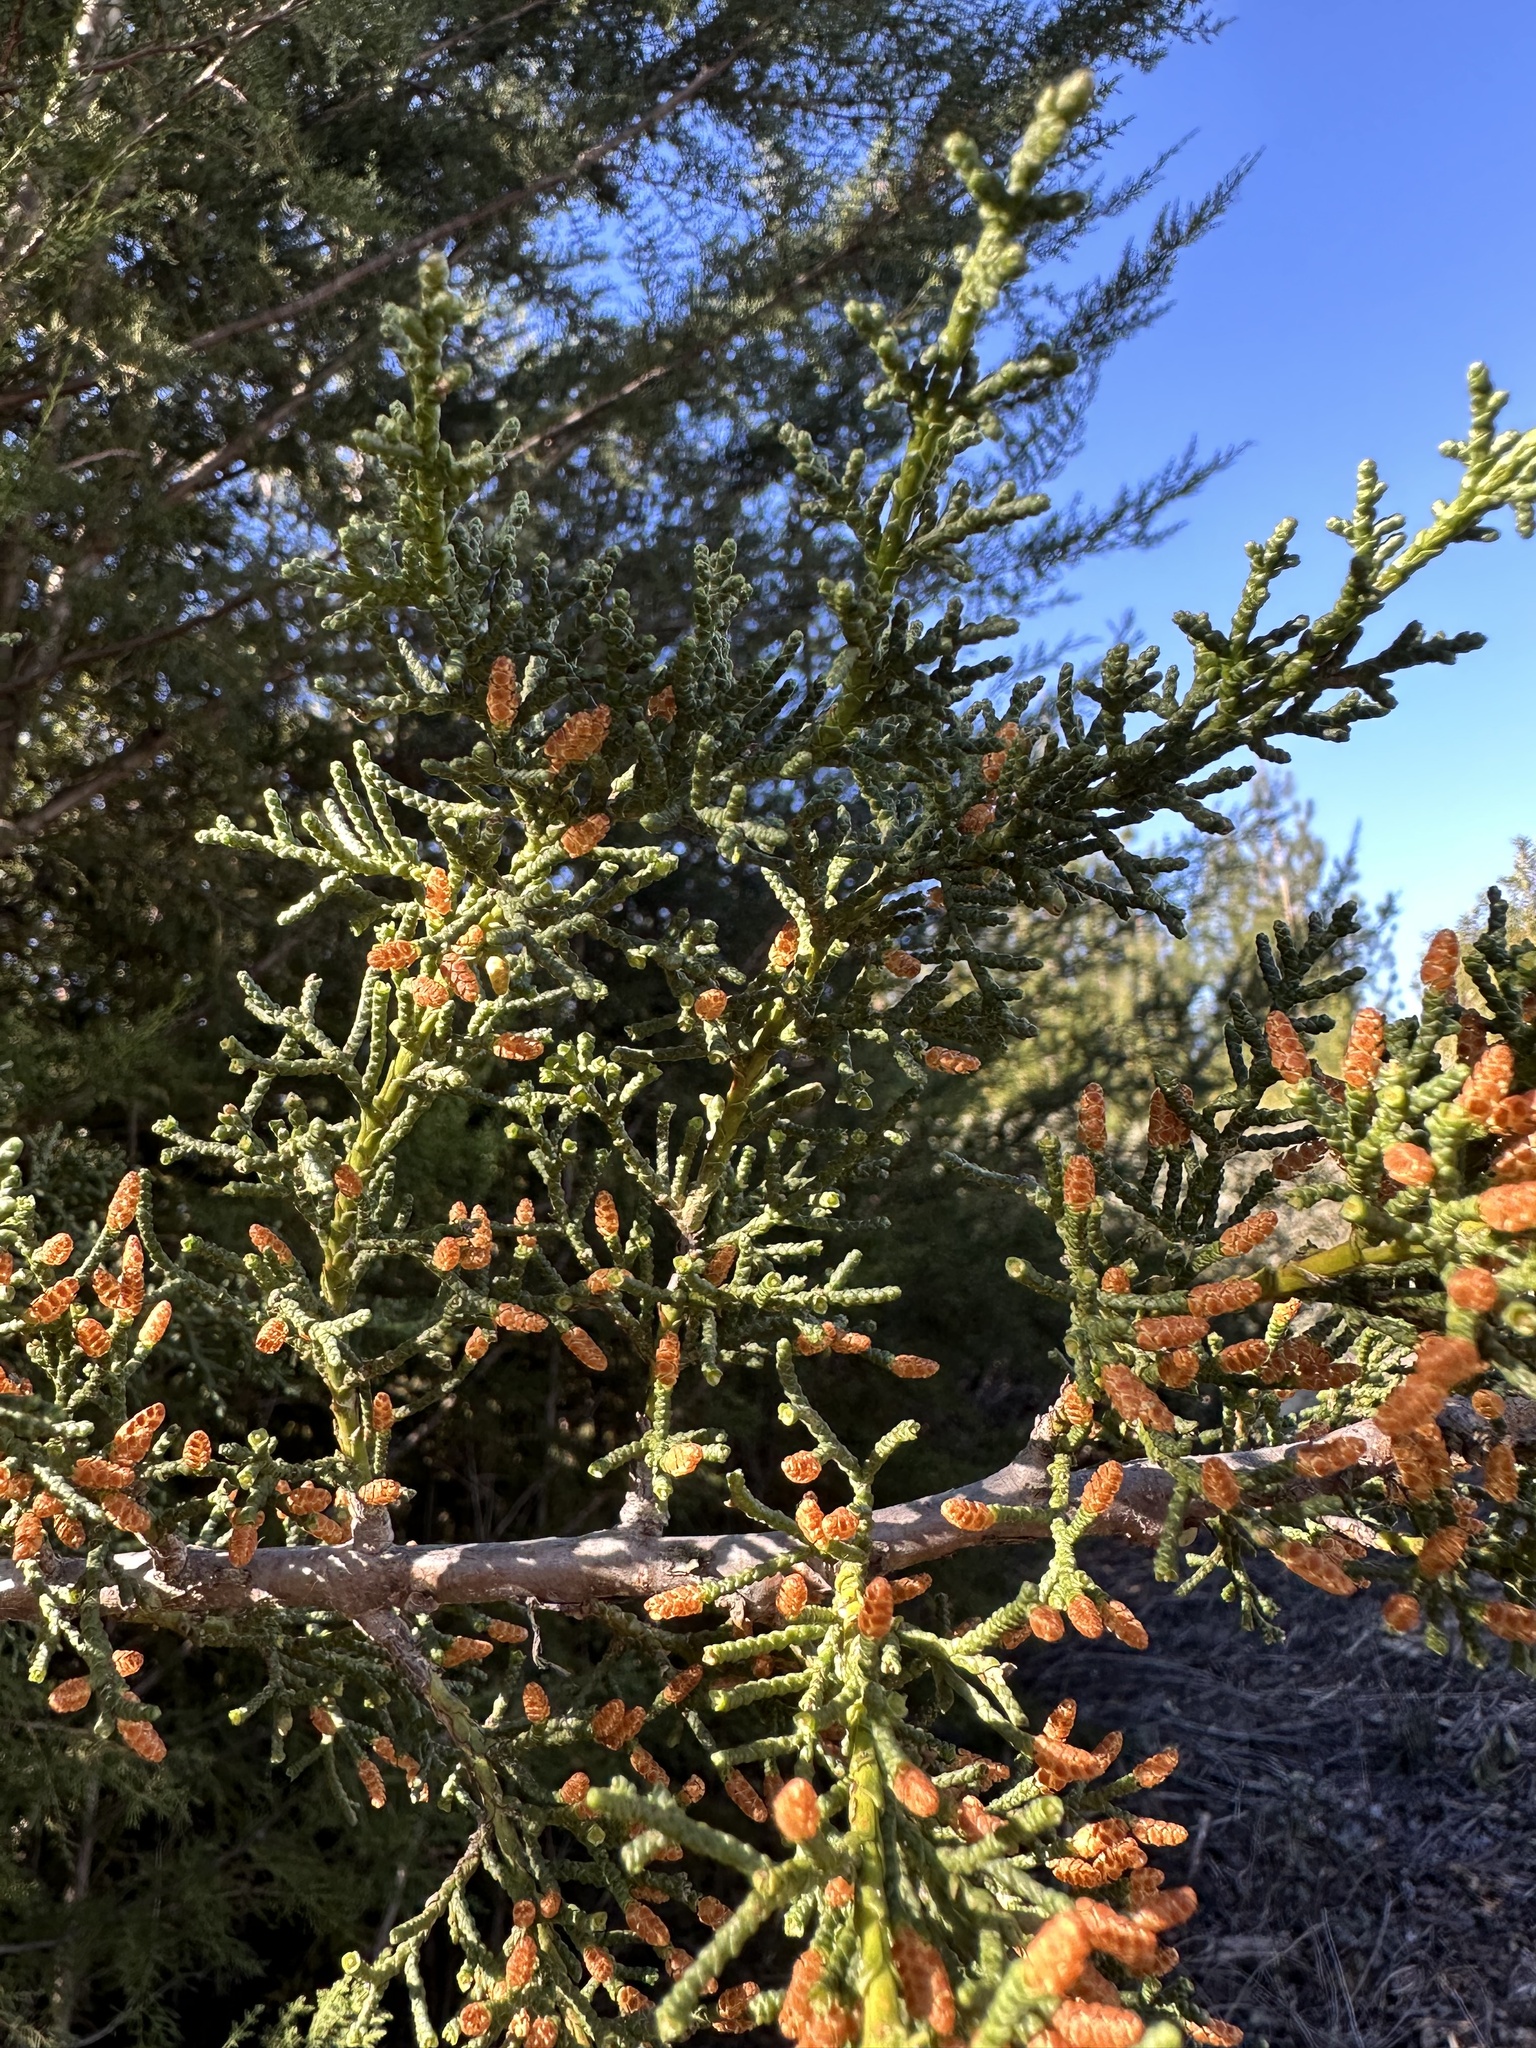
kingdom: Plantae
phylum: Tracheophyta
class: Pinopsida
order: Pinales
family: Cupressaceae
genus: Cupressus
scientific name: Cupressus goveniana
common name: Gowen cypress
